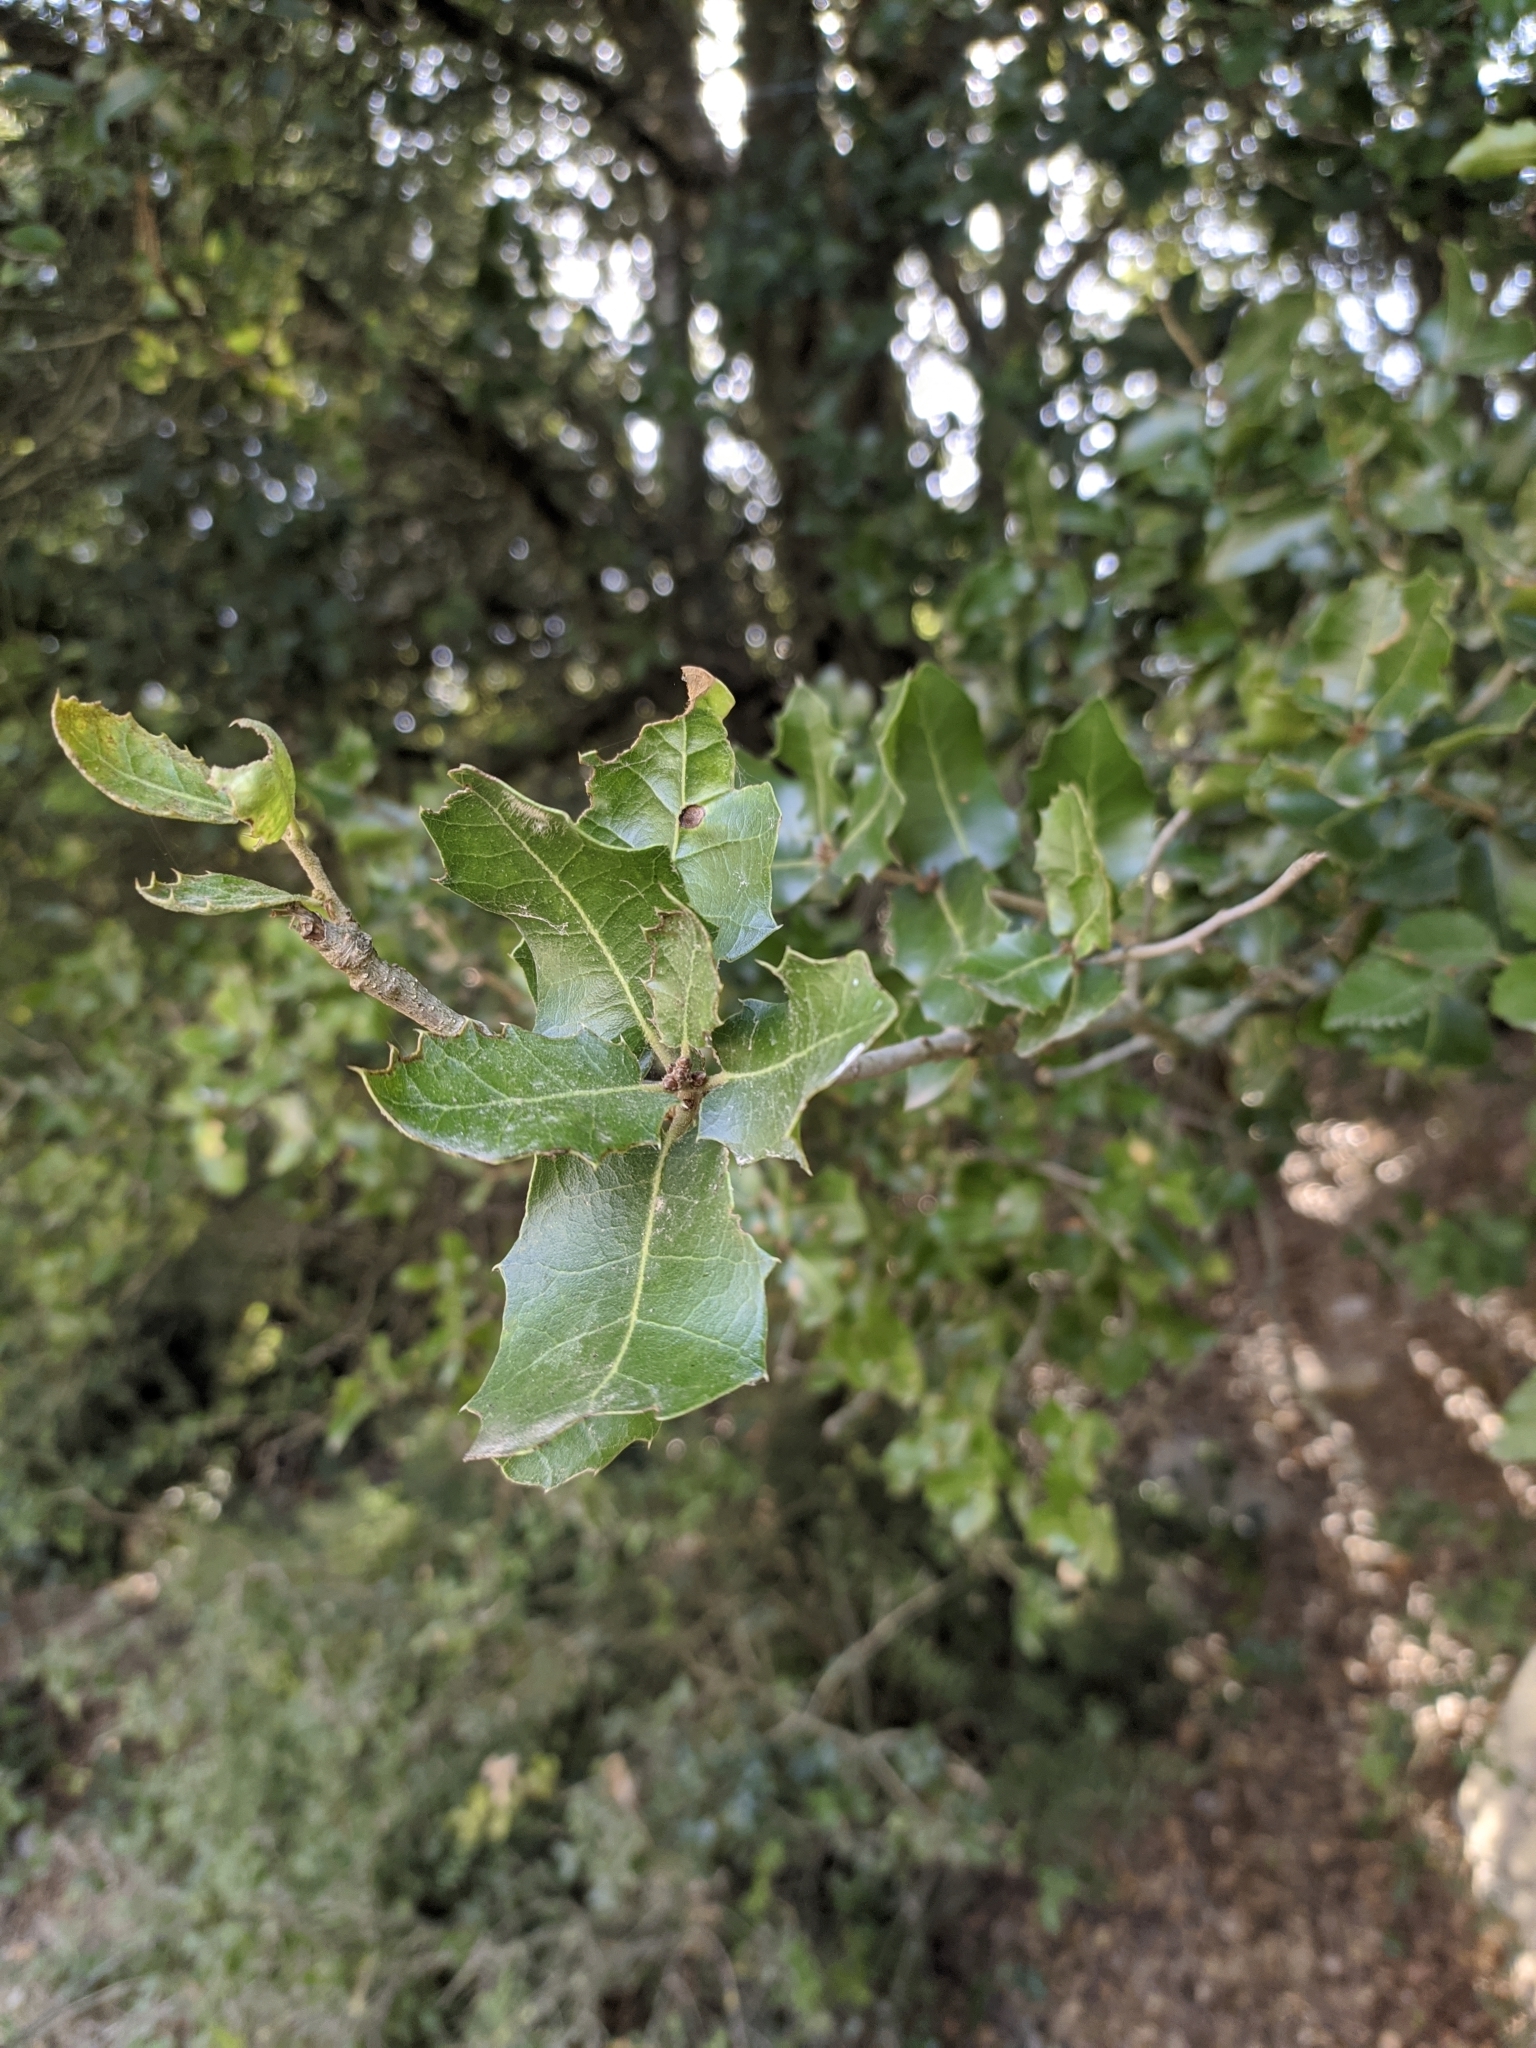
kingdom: Plantae
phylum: Tracheophyta
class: Magnoliopsida
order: Fagales
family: Fagaceae
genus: Quercus
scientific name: Quercus coccifera
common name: Kermes oak
